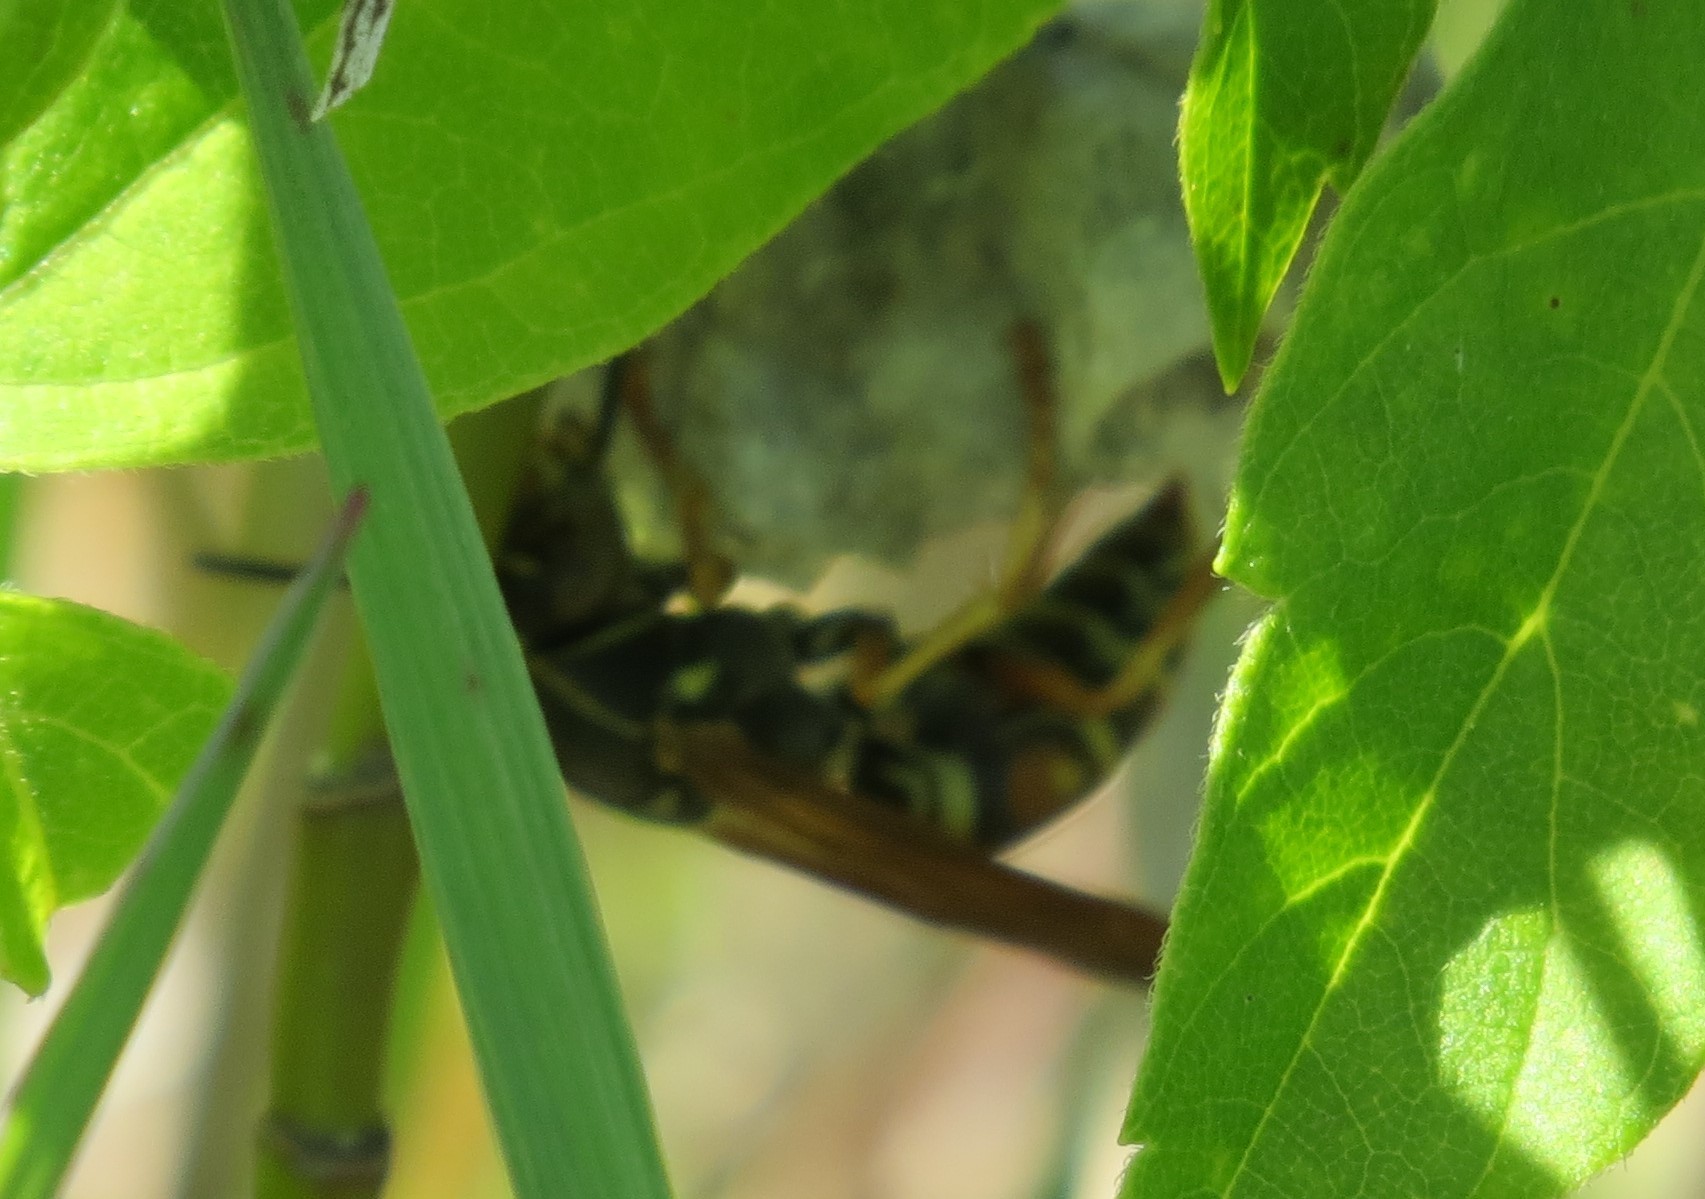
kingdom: Animalia
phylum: Arthropoda
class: Insecta
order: Hymenoptera
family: Eumenidae
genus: Polistes
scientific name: Polistes fuscatus
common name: Dark paper wasp
